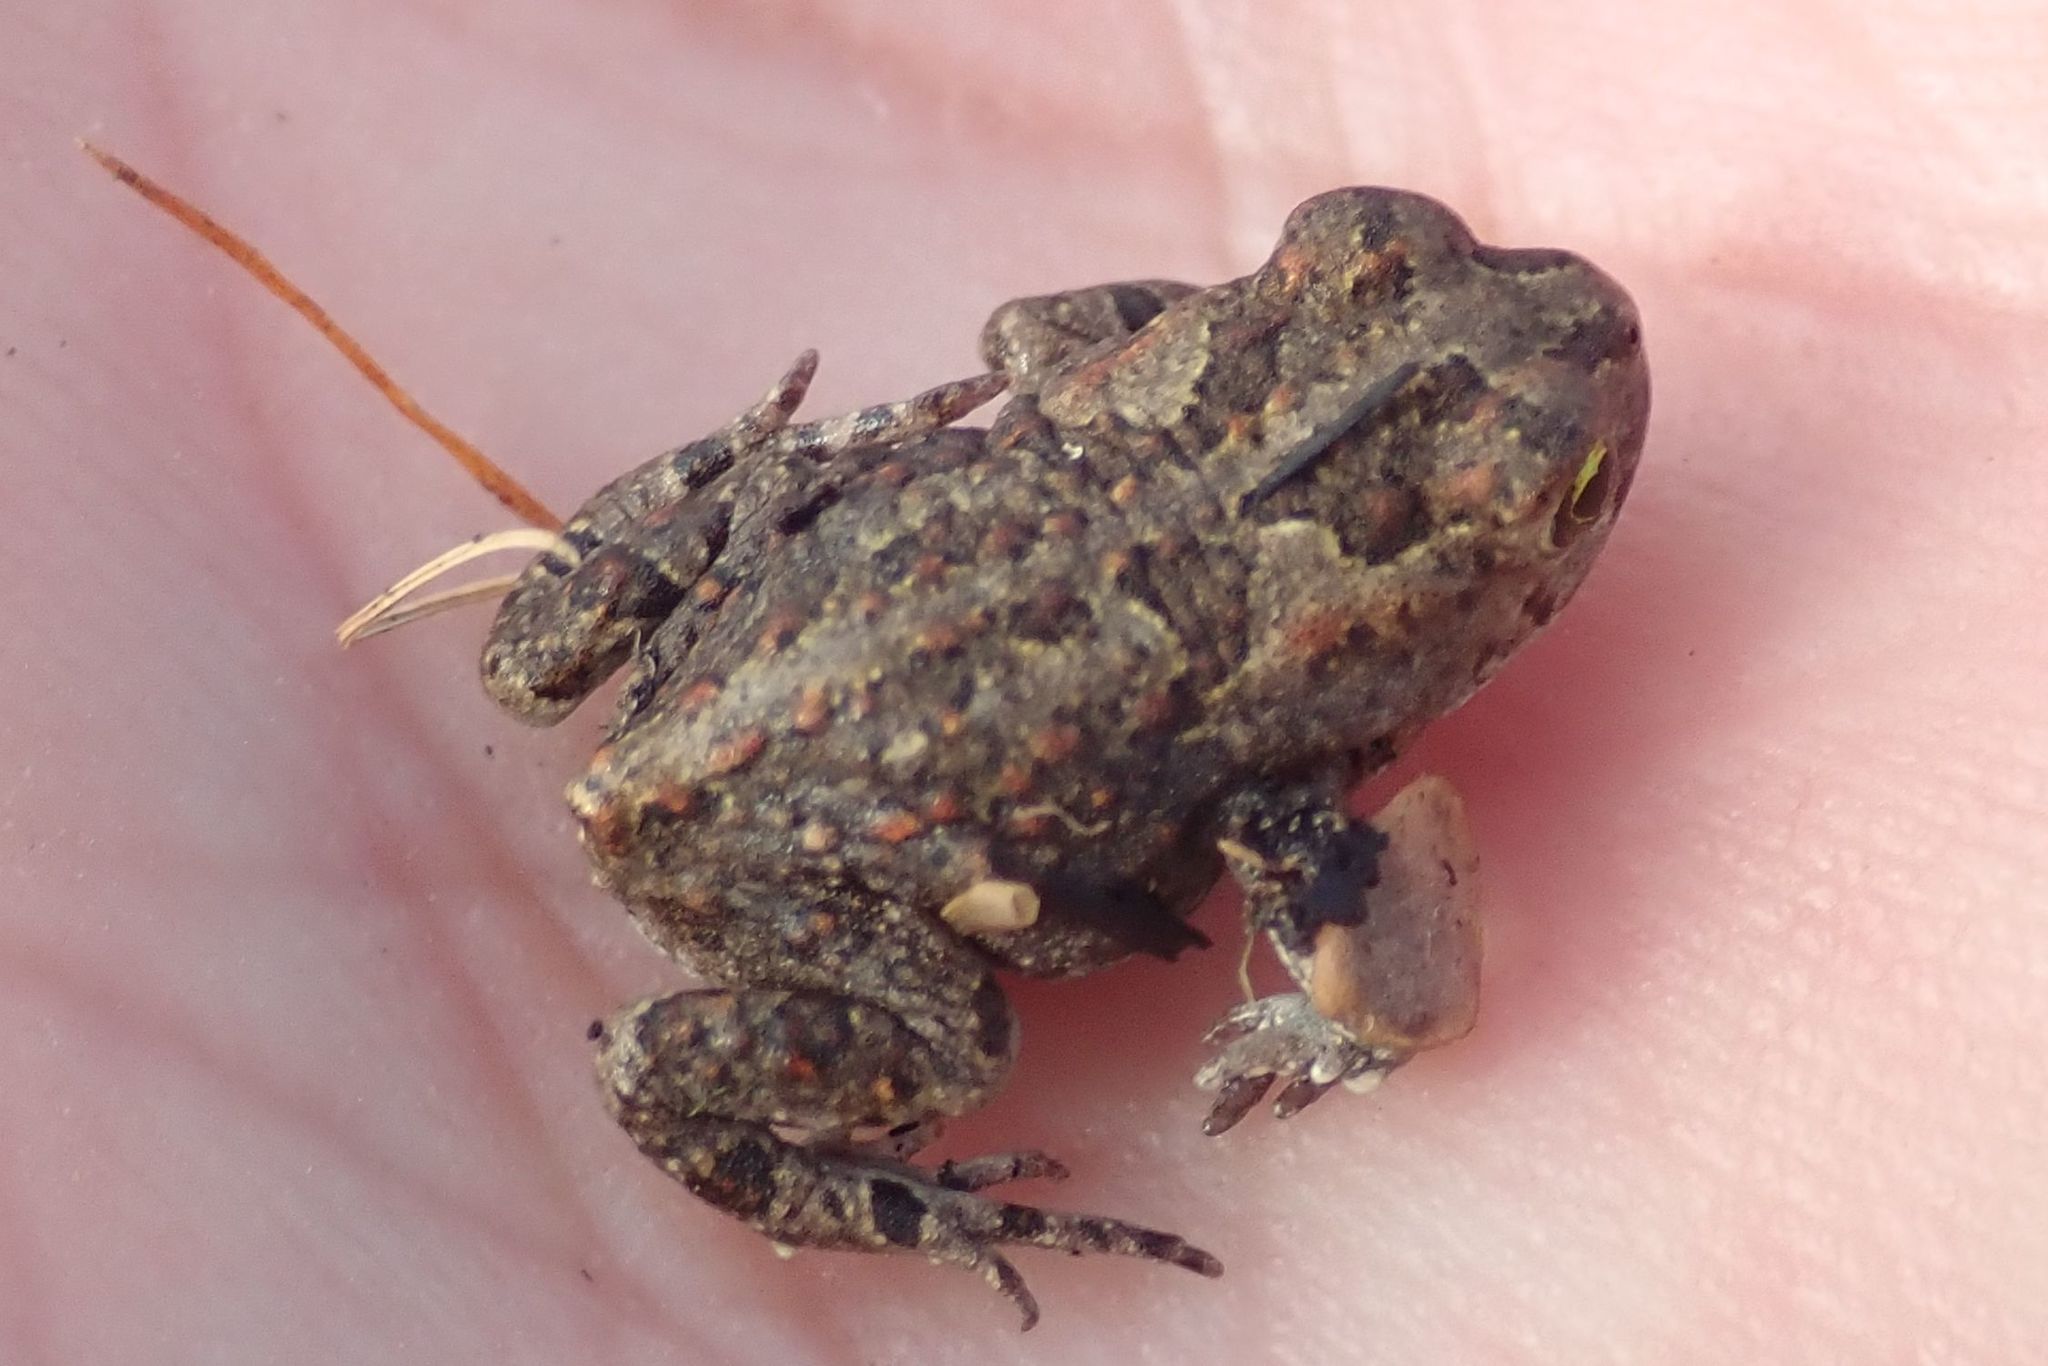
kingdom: Animalia
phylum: Chordata
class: Amphibia
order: Anura
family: Bufonidae
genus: Sclerophrys
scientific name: Sclerophrys gutturalis
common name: African common toad
